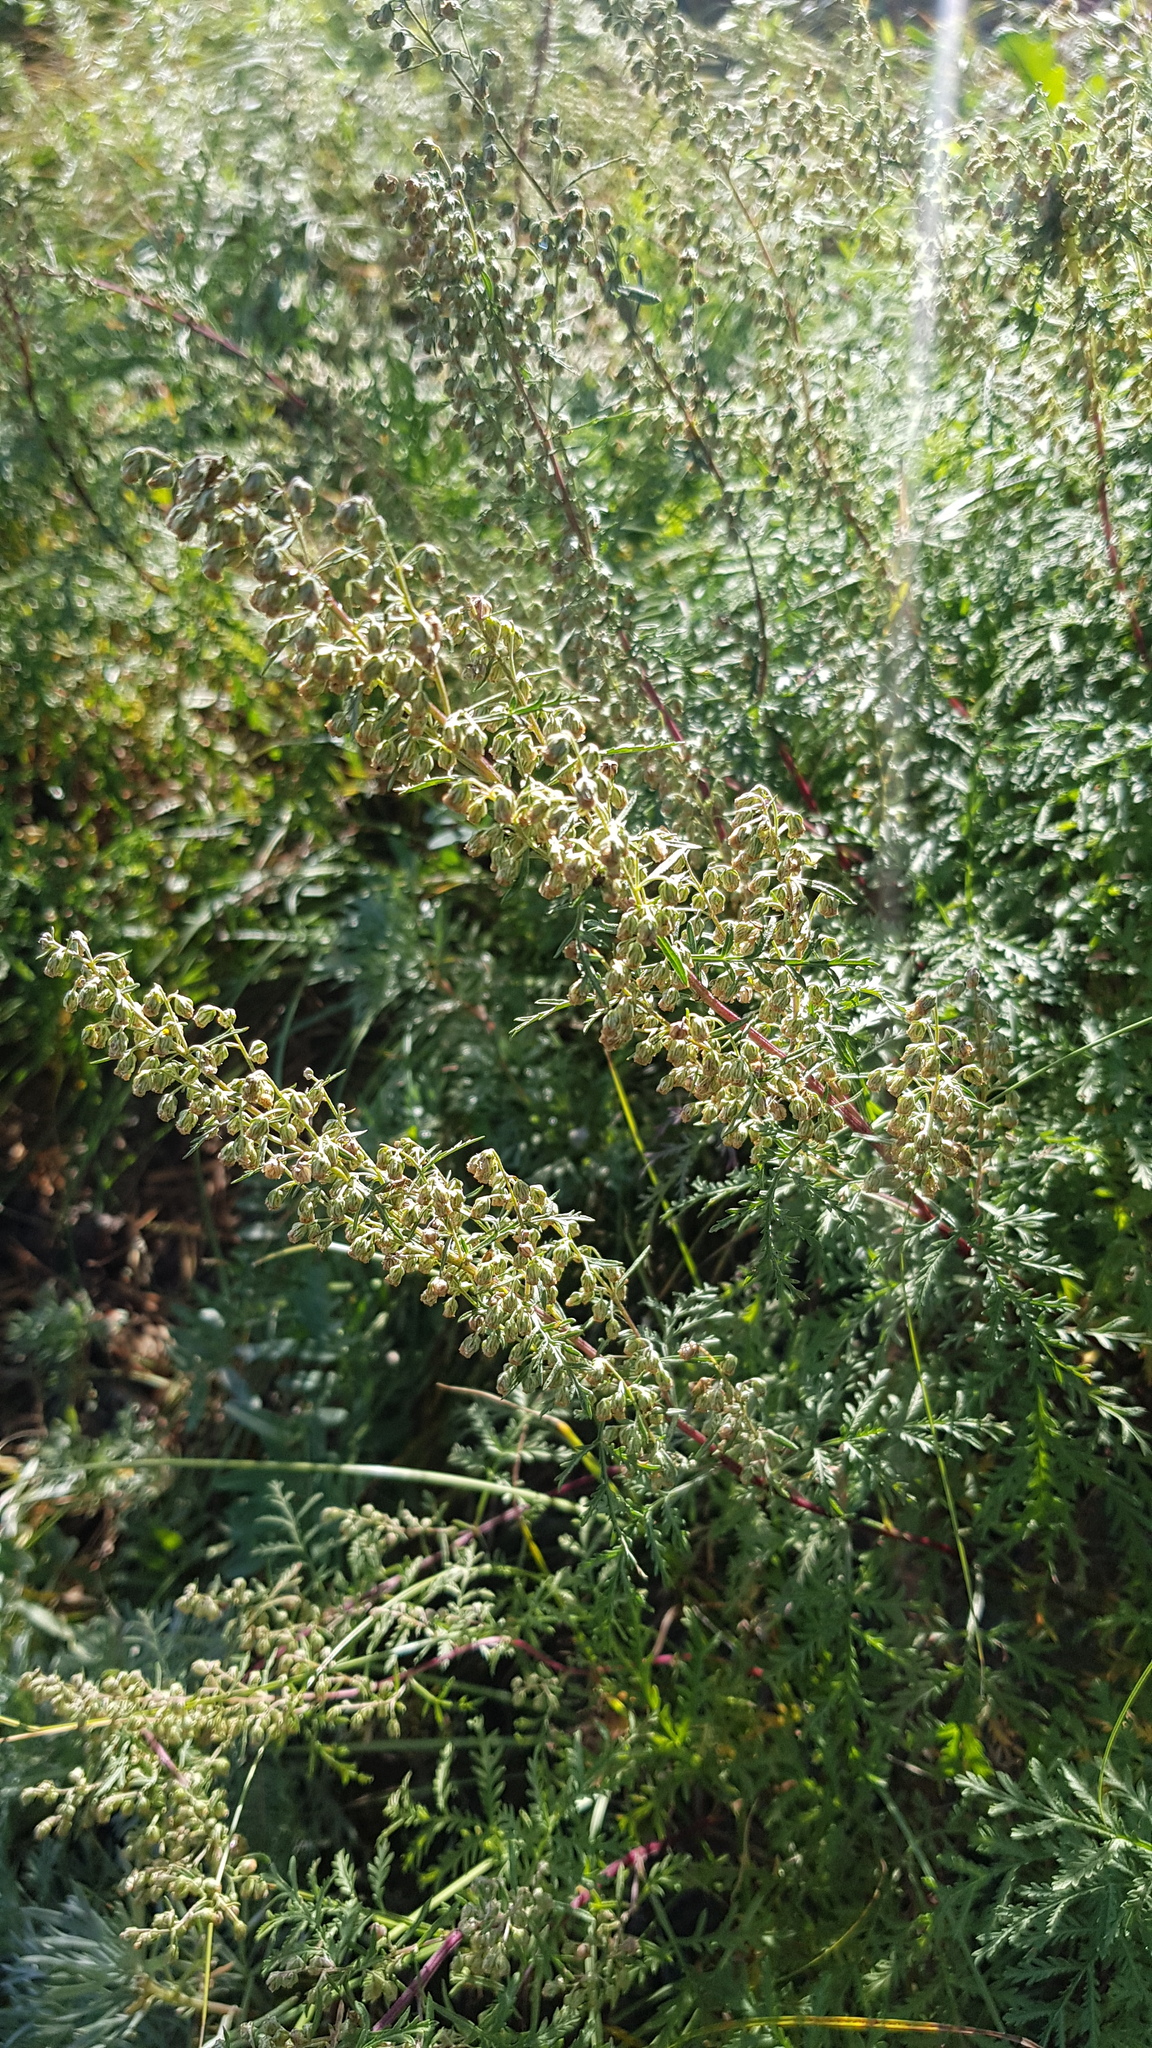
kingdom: Plantae
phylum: Tracheophyta
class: Magnoliopsida
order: Asterales
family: Asteraceae
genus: Artemisia
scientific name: Artemisia gmelinii
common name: Gmelin's wormwood
